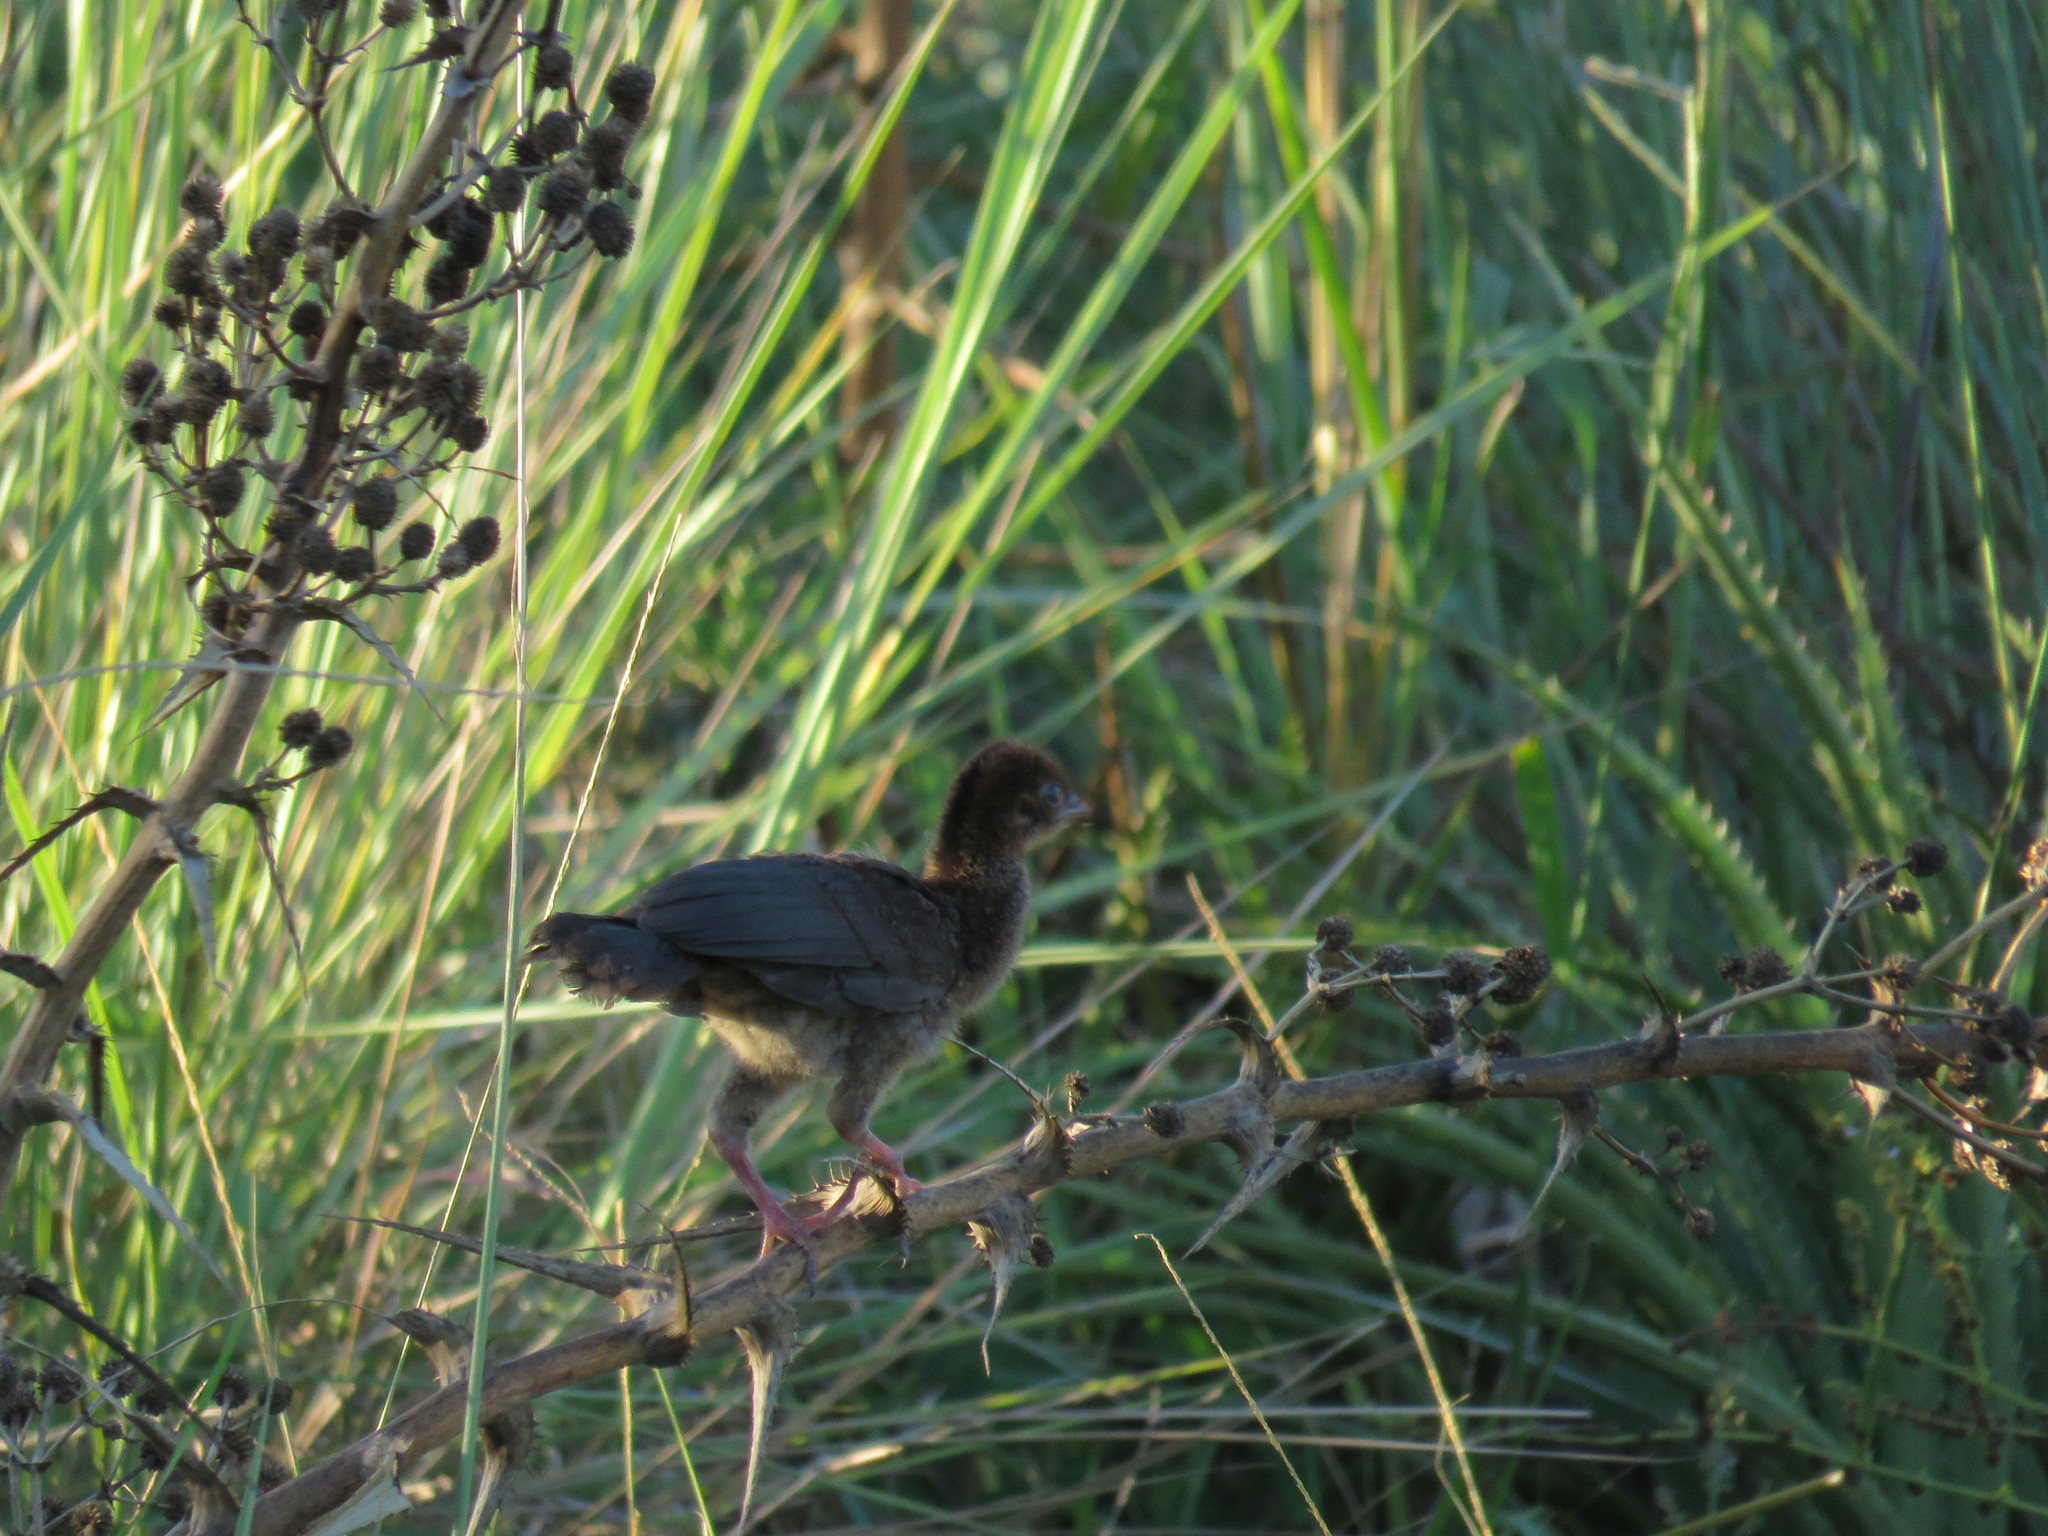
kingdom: Animalia
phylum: Chordata
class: Aves
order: Galliformes
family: Cracidae
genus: Ortalis
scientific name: Ortalis canicollis
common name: Chaco chachalaca
